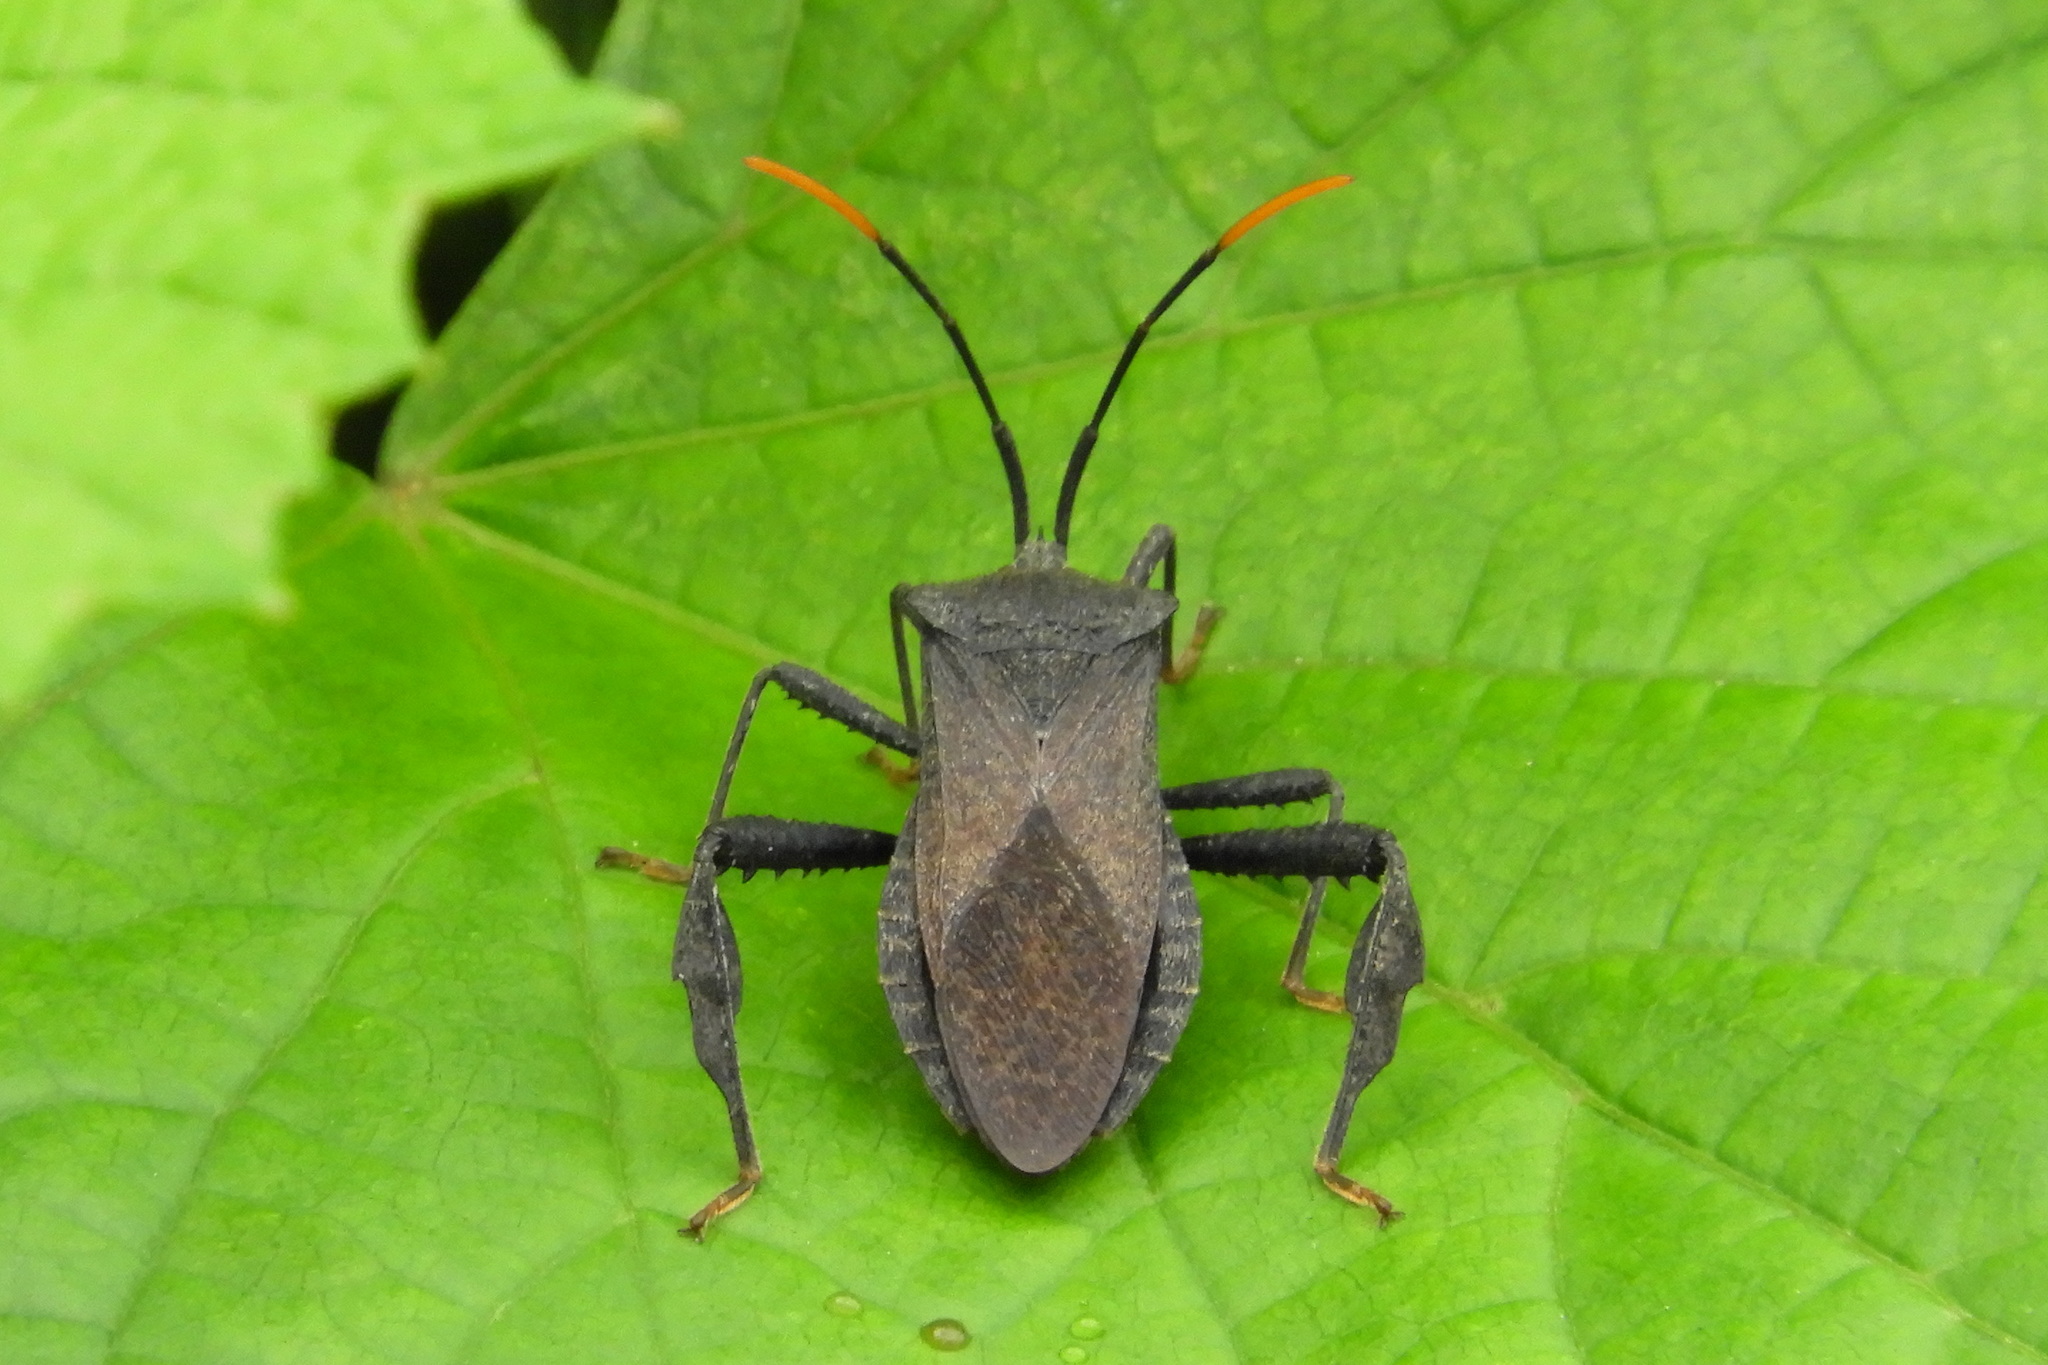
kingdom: Animalia
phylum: Arthropoda
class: Insecta
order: Hemiptera
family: Coreidae
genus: Acanthocephala
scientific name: Acanthocephala terminalis
